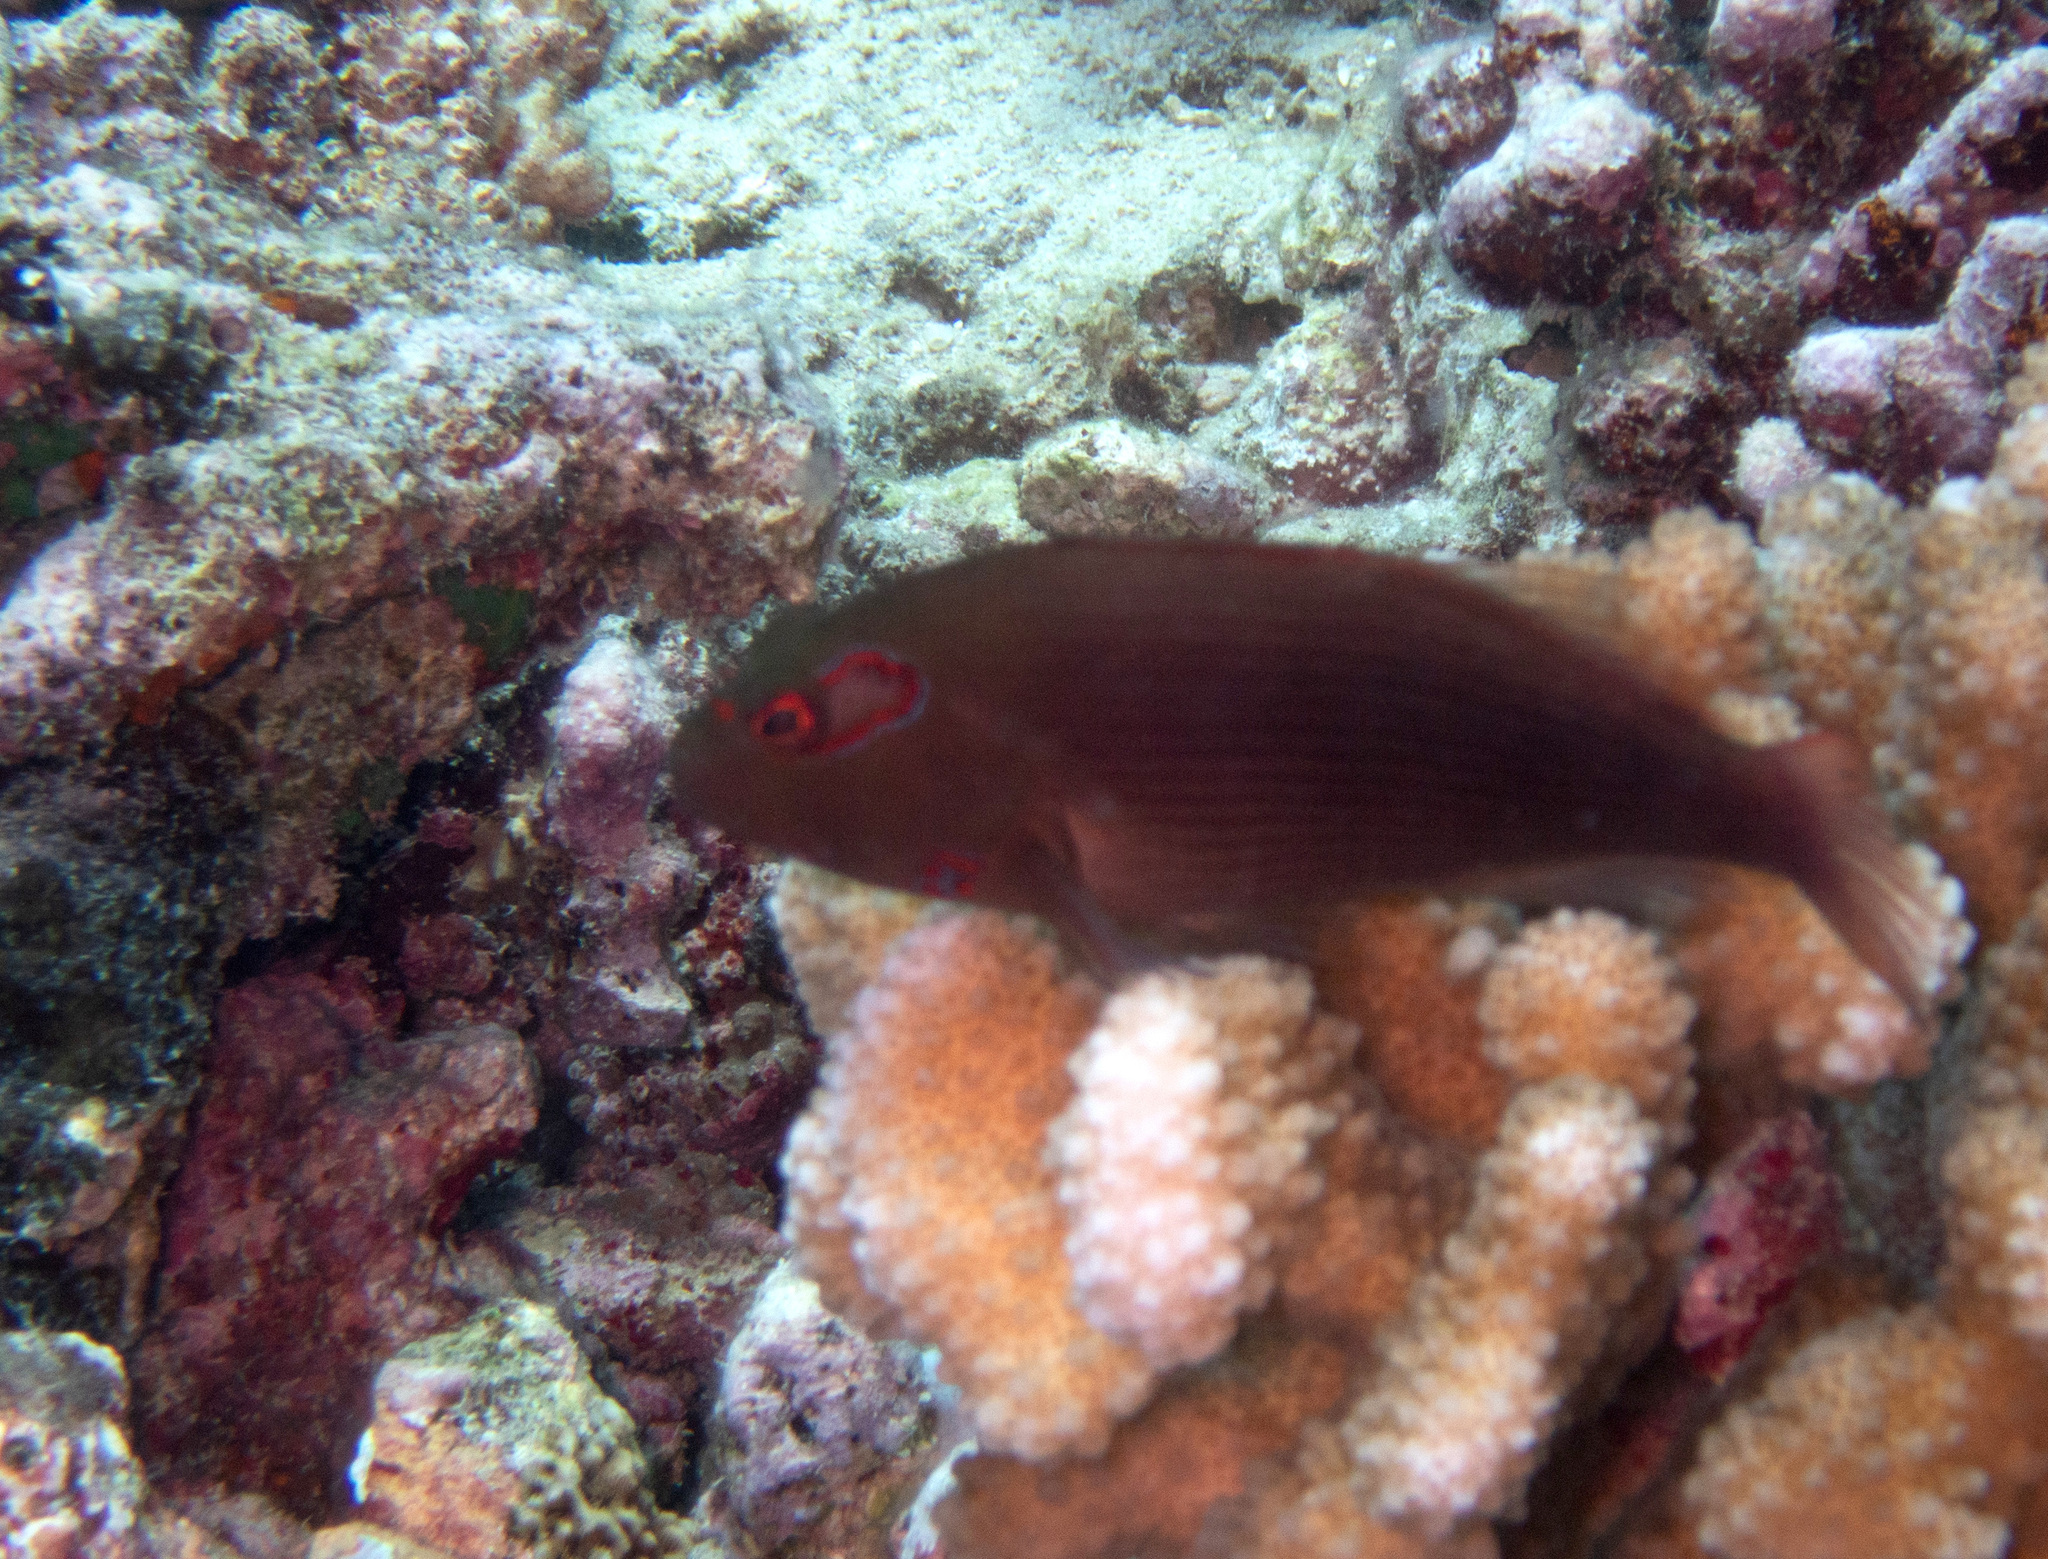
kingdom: Animalia
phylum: Chordata
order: Perciformes
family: Cirrhitidae
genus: Paracirrhites
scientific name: Paracirrhites arcatus
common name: Arc-eye hawkfish
